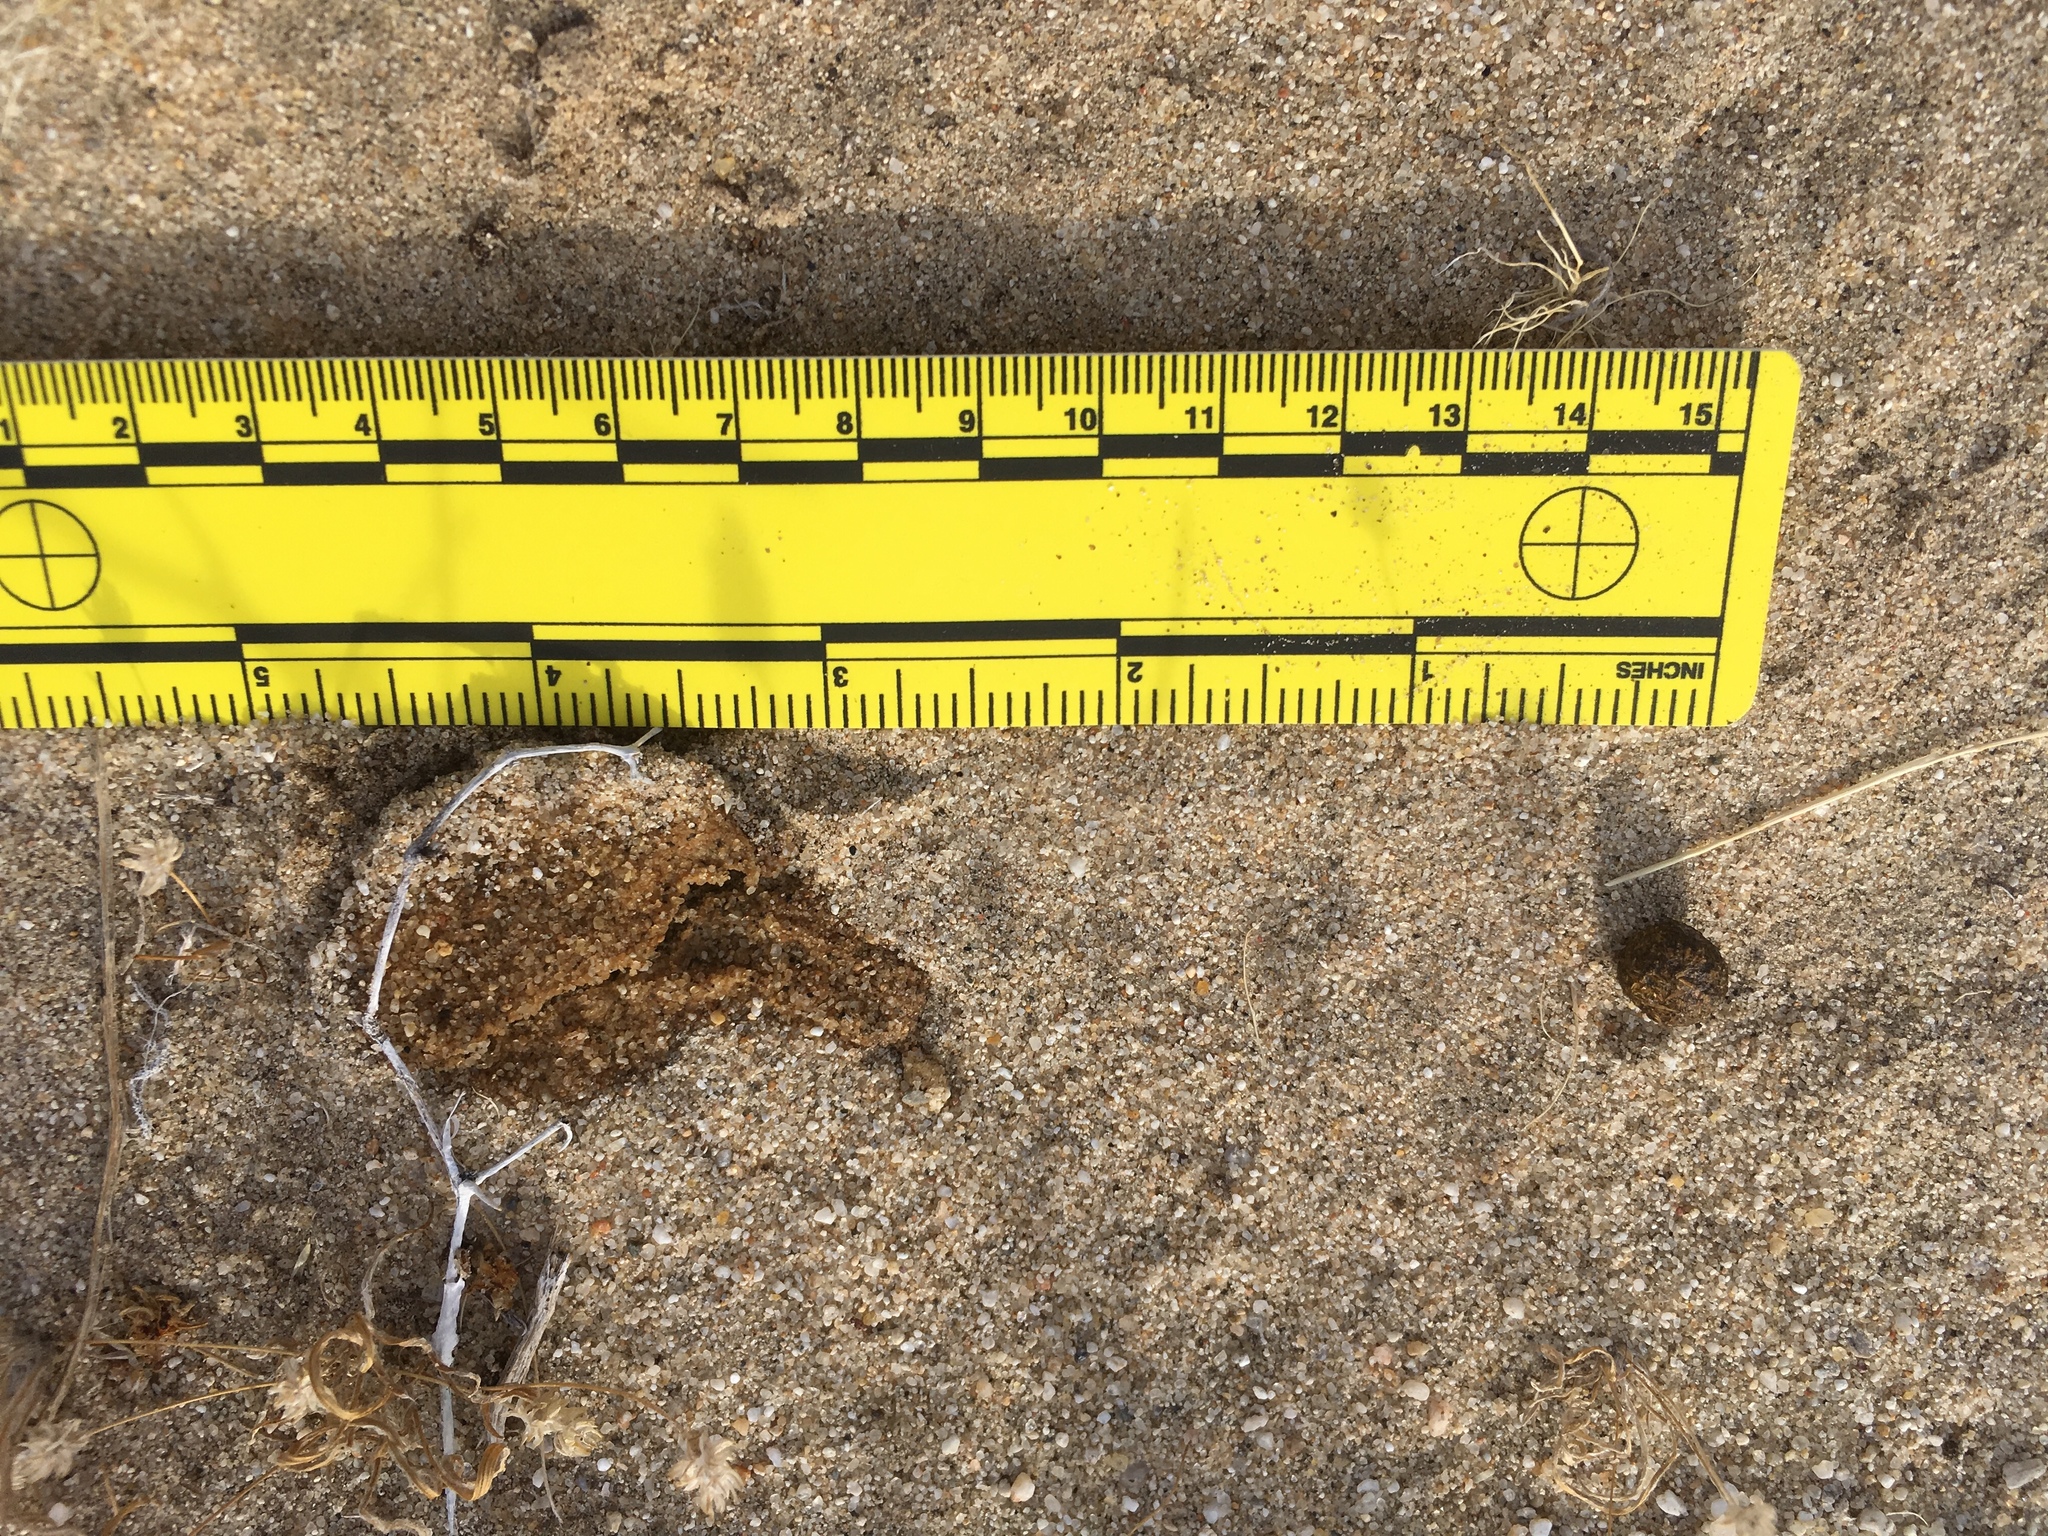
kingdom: Animalia
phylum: Chordata
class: Mammalia
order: Lagomorpha
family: Leporidae
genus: Lepus
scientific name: Lepus californicus
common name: Black-tailed jackrabbit
